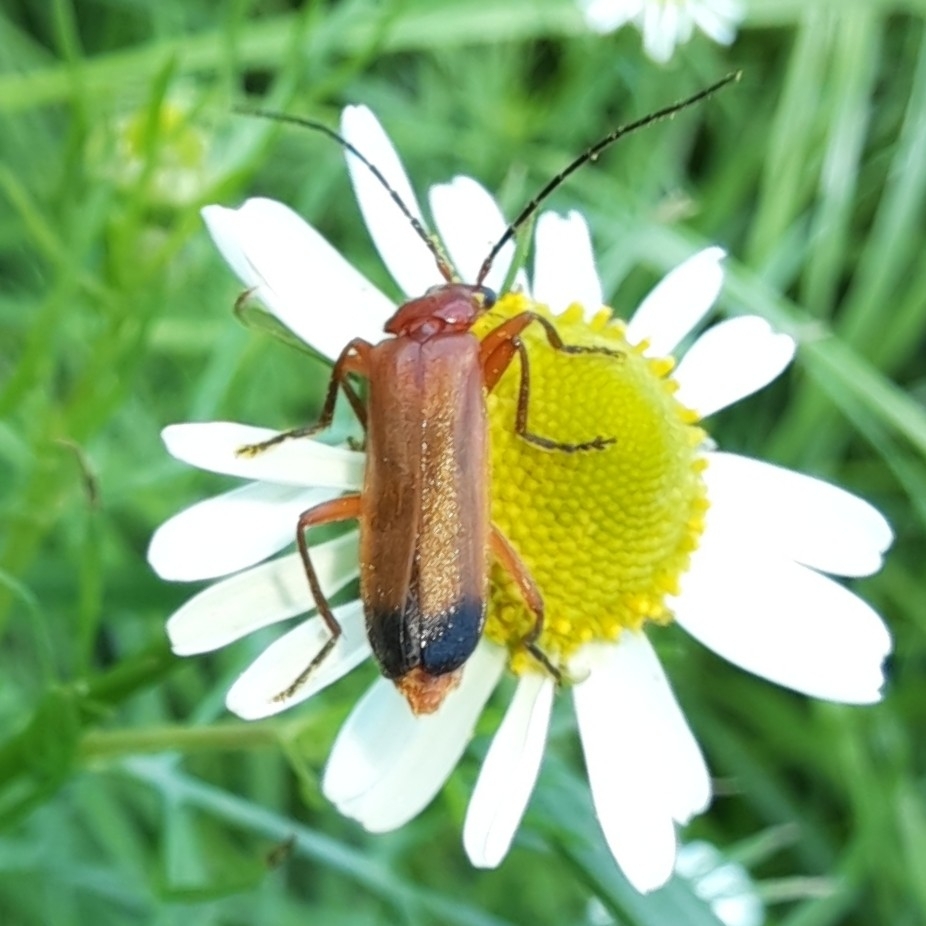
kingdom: Animalia
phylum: Arthropoda
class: Insecta
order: Coleoptera
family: Cantharidae
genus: Rhagonycha
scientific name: Rhagonycha fulva
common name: Common red soldier beetle
